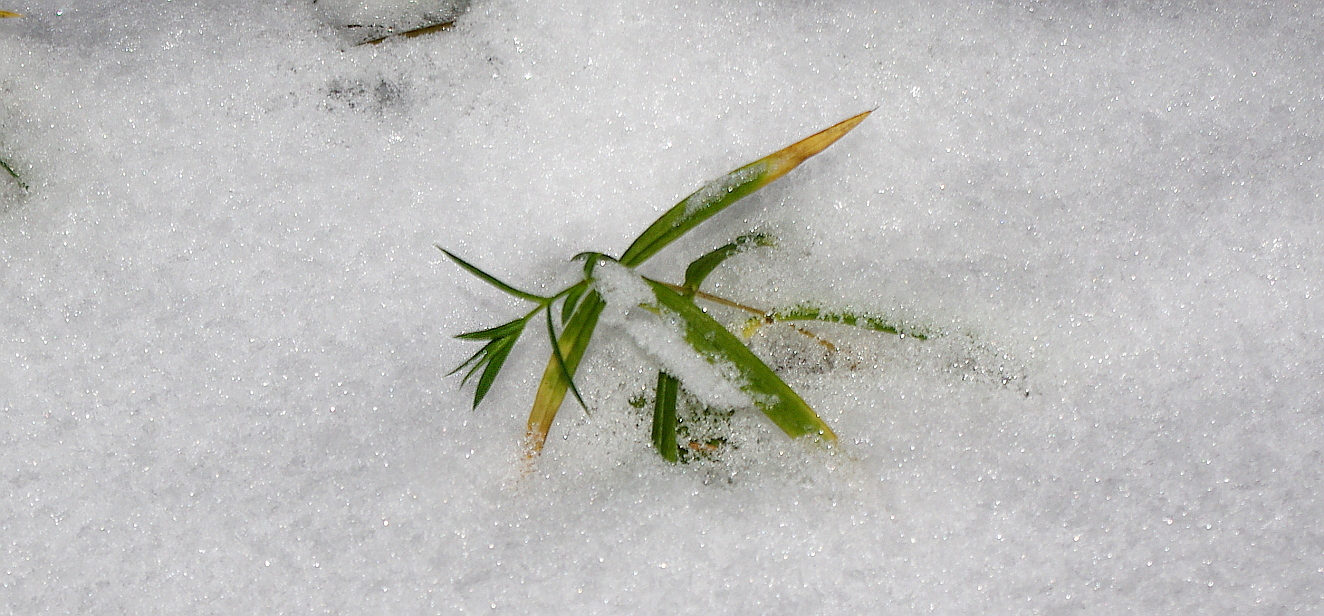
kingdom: Plantae
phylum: Tracheophyta
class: Magnoliopsida
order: Caryophyllales
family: Caryophyllaceae
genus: Rabelera
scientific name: Rabelera holostea
